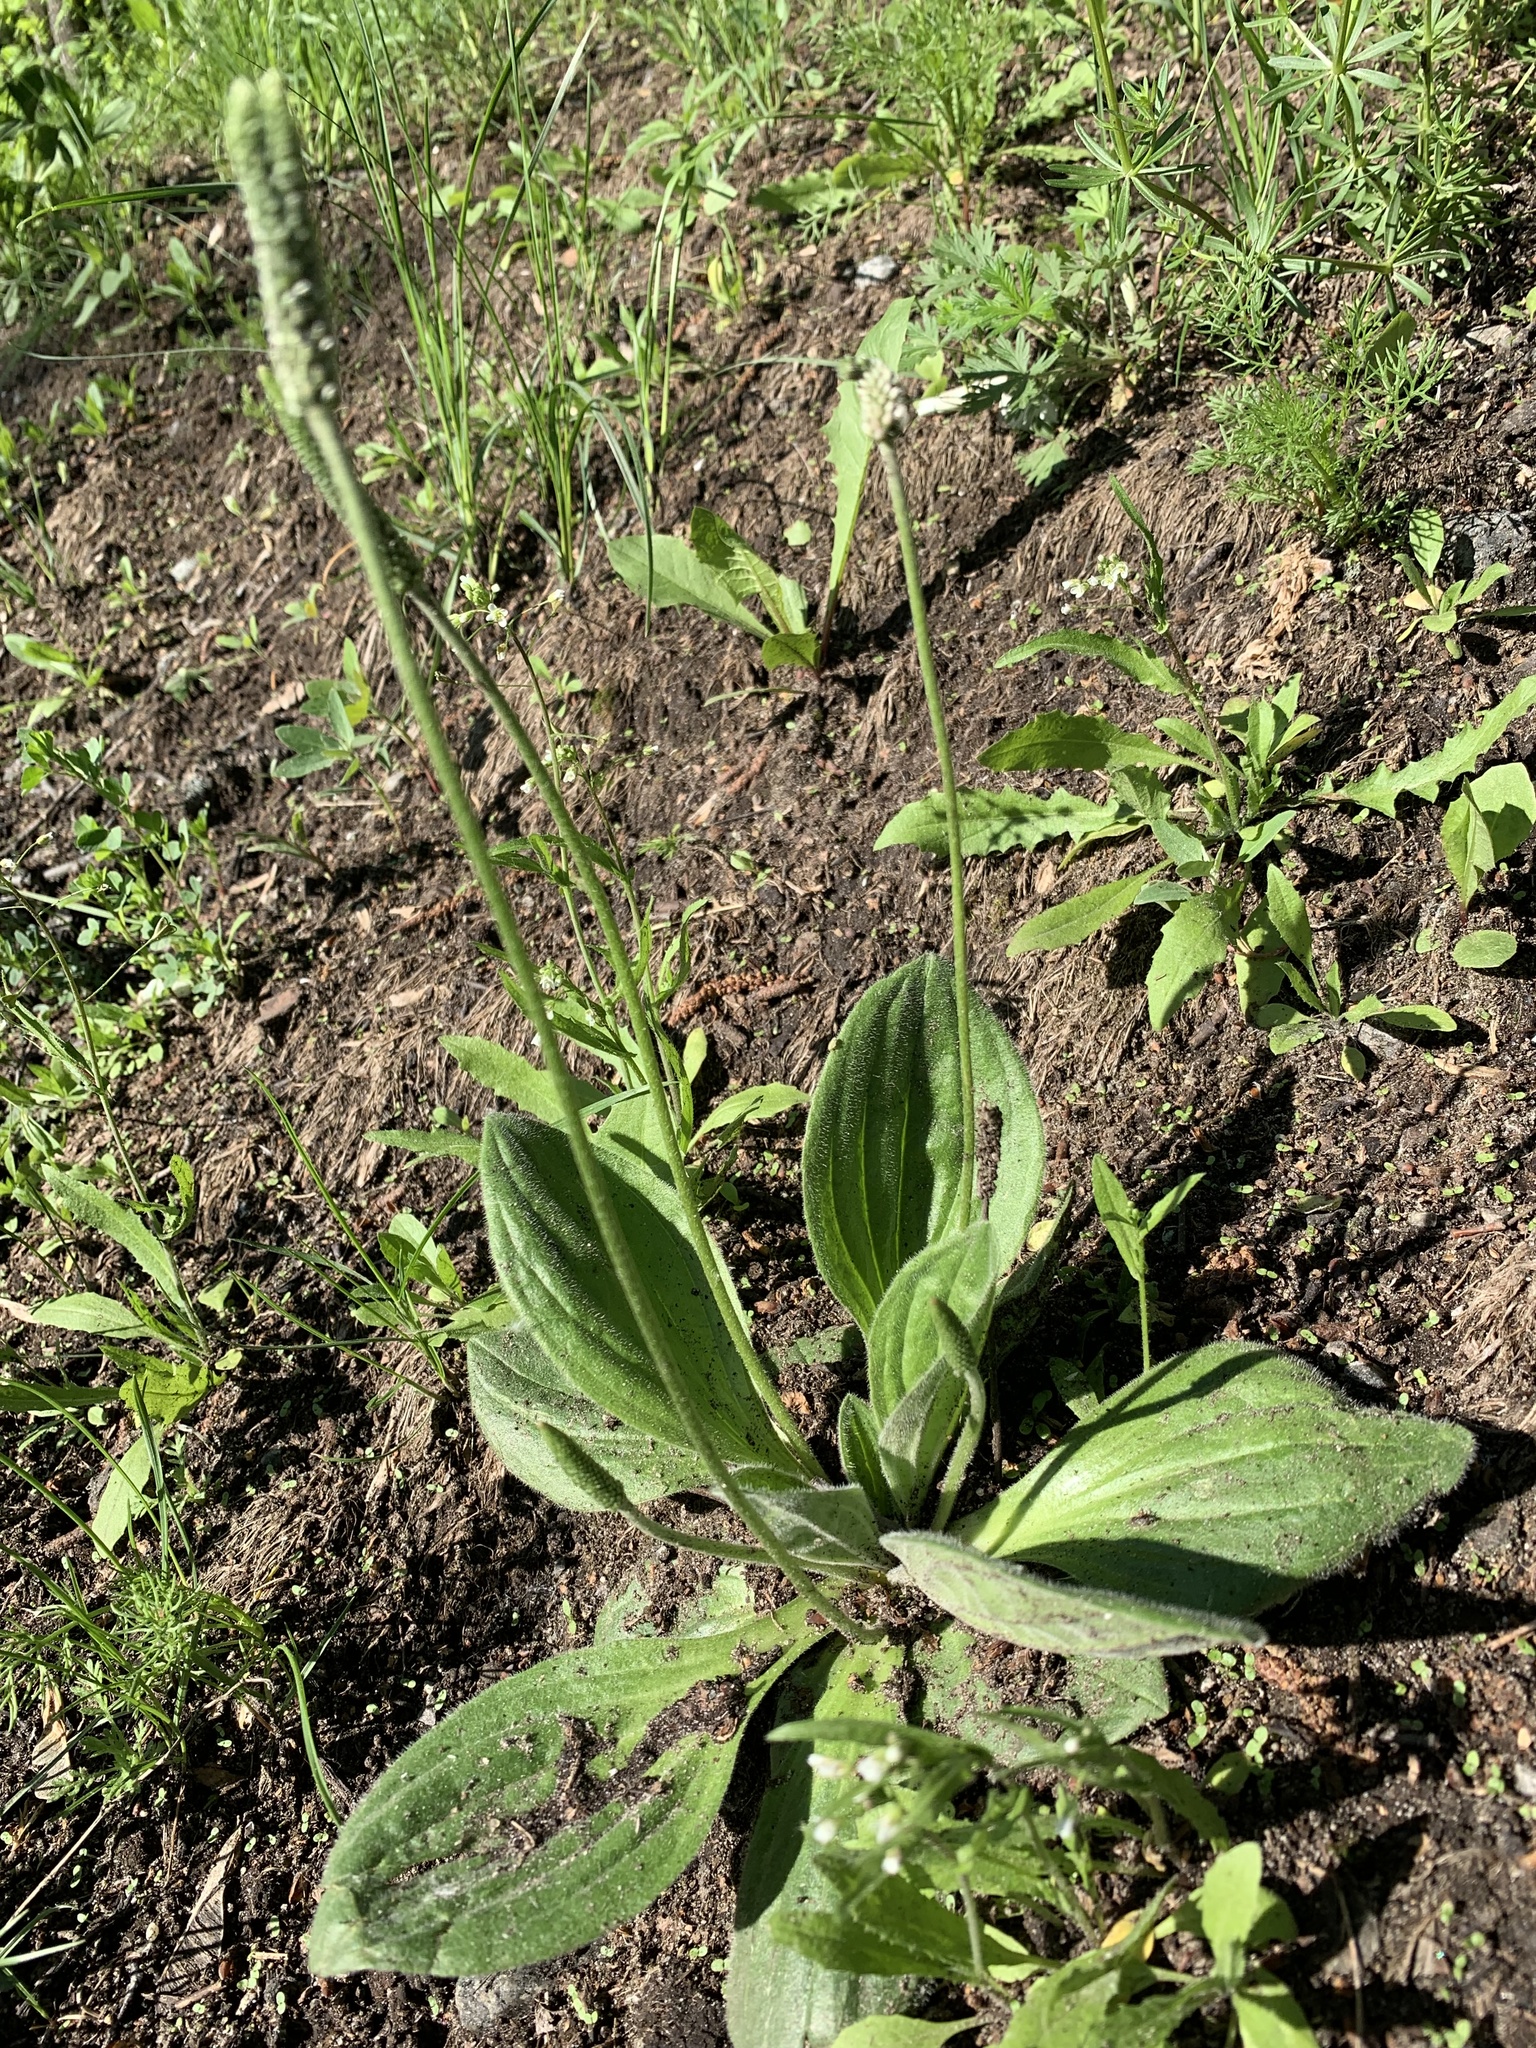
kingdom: Plantae
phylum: Tracheophyta
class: Magnoliopsida
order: Lamiales
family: Plantaginaceae
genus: Plantago
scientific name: Plantago media
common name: Hoary plantain
